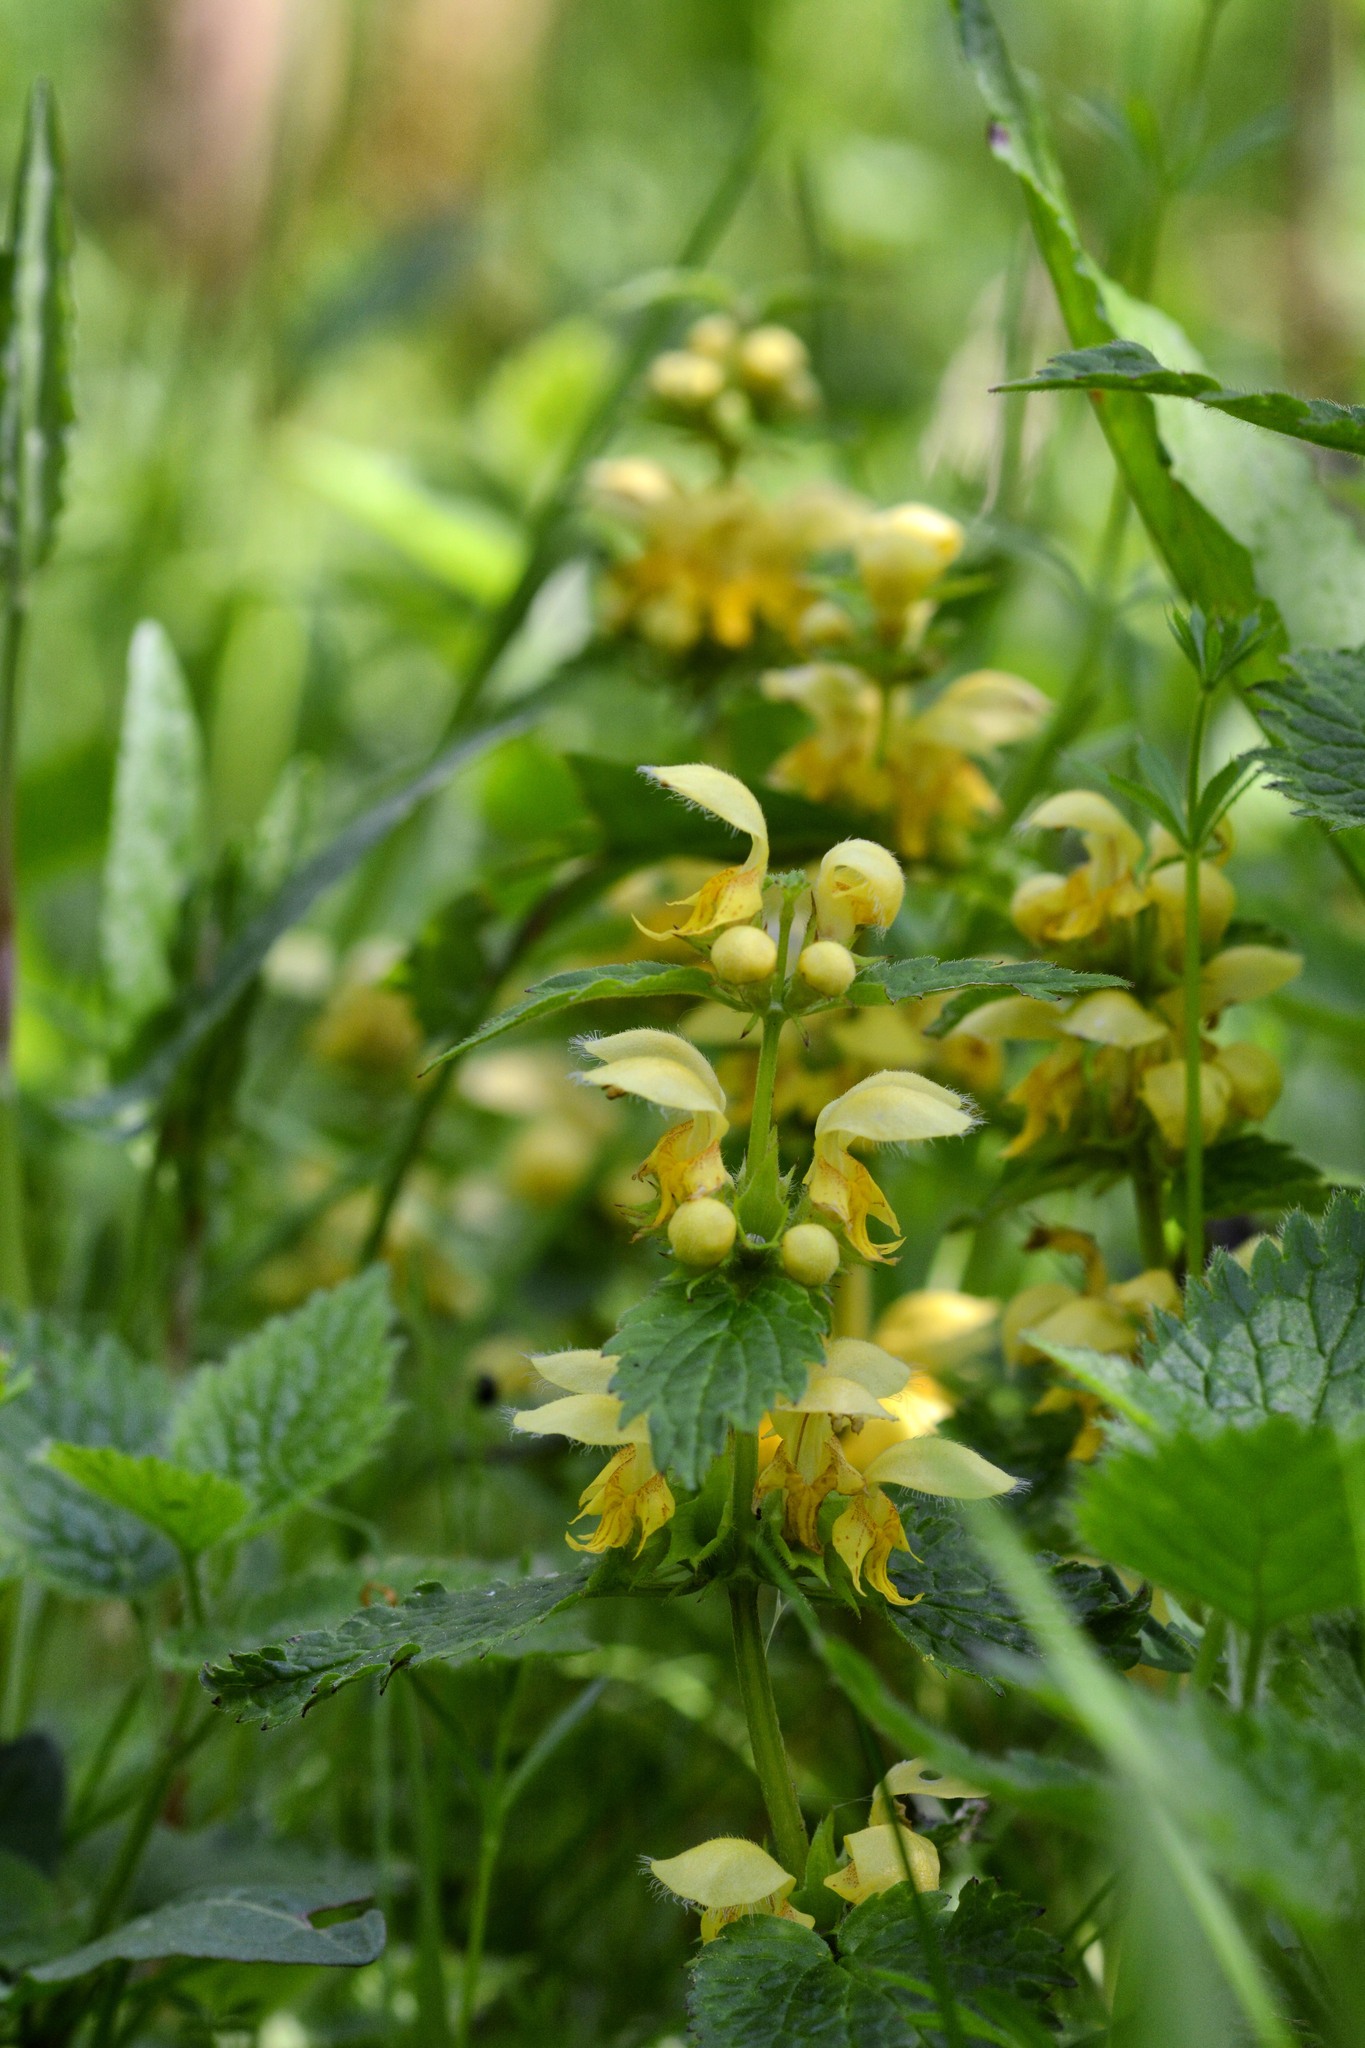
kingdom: Plantae
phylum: Tracheophyta
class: Magnoliopsida
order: Lamiales
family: Lamiaceae
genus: Lamium
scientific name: Lamium galeobdolon
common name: Yellow archangel
